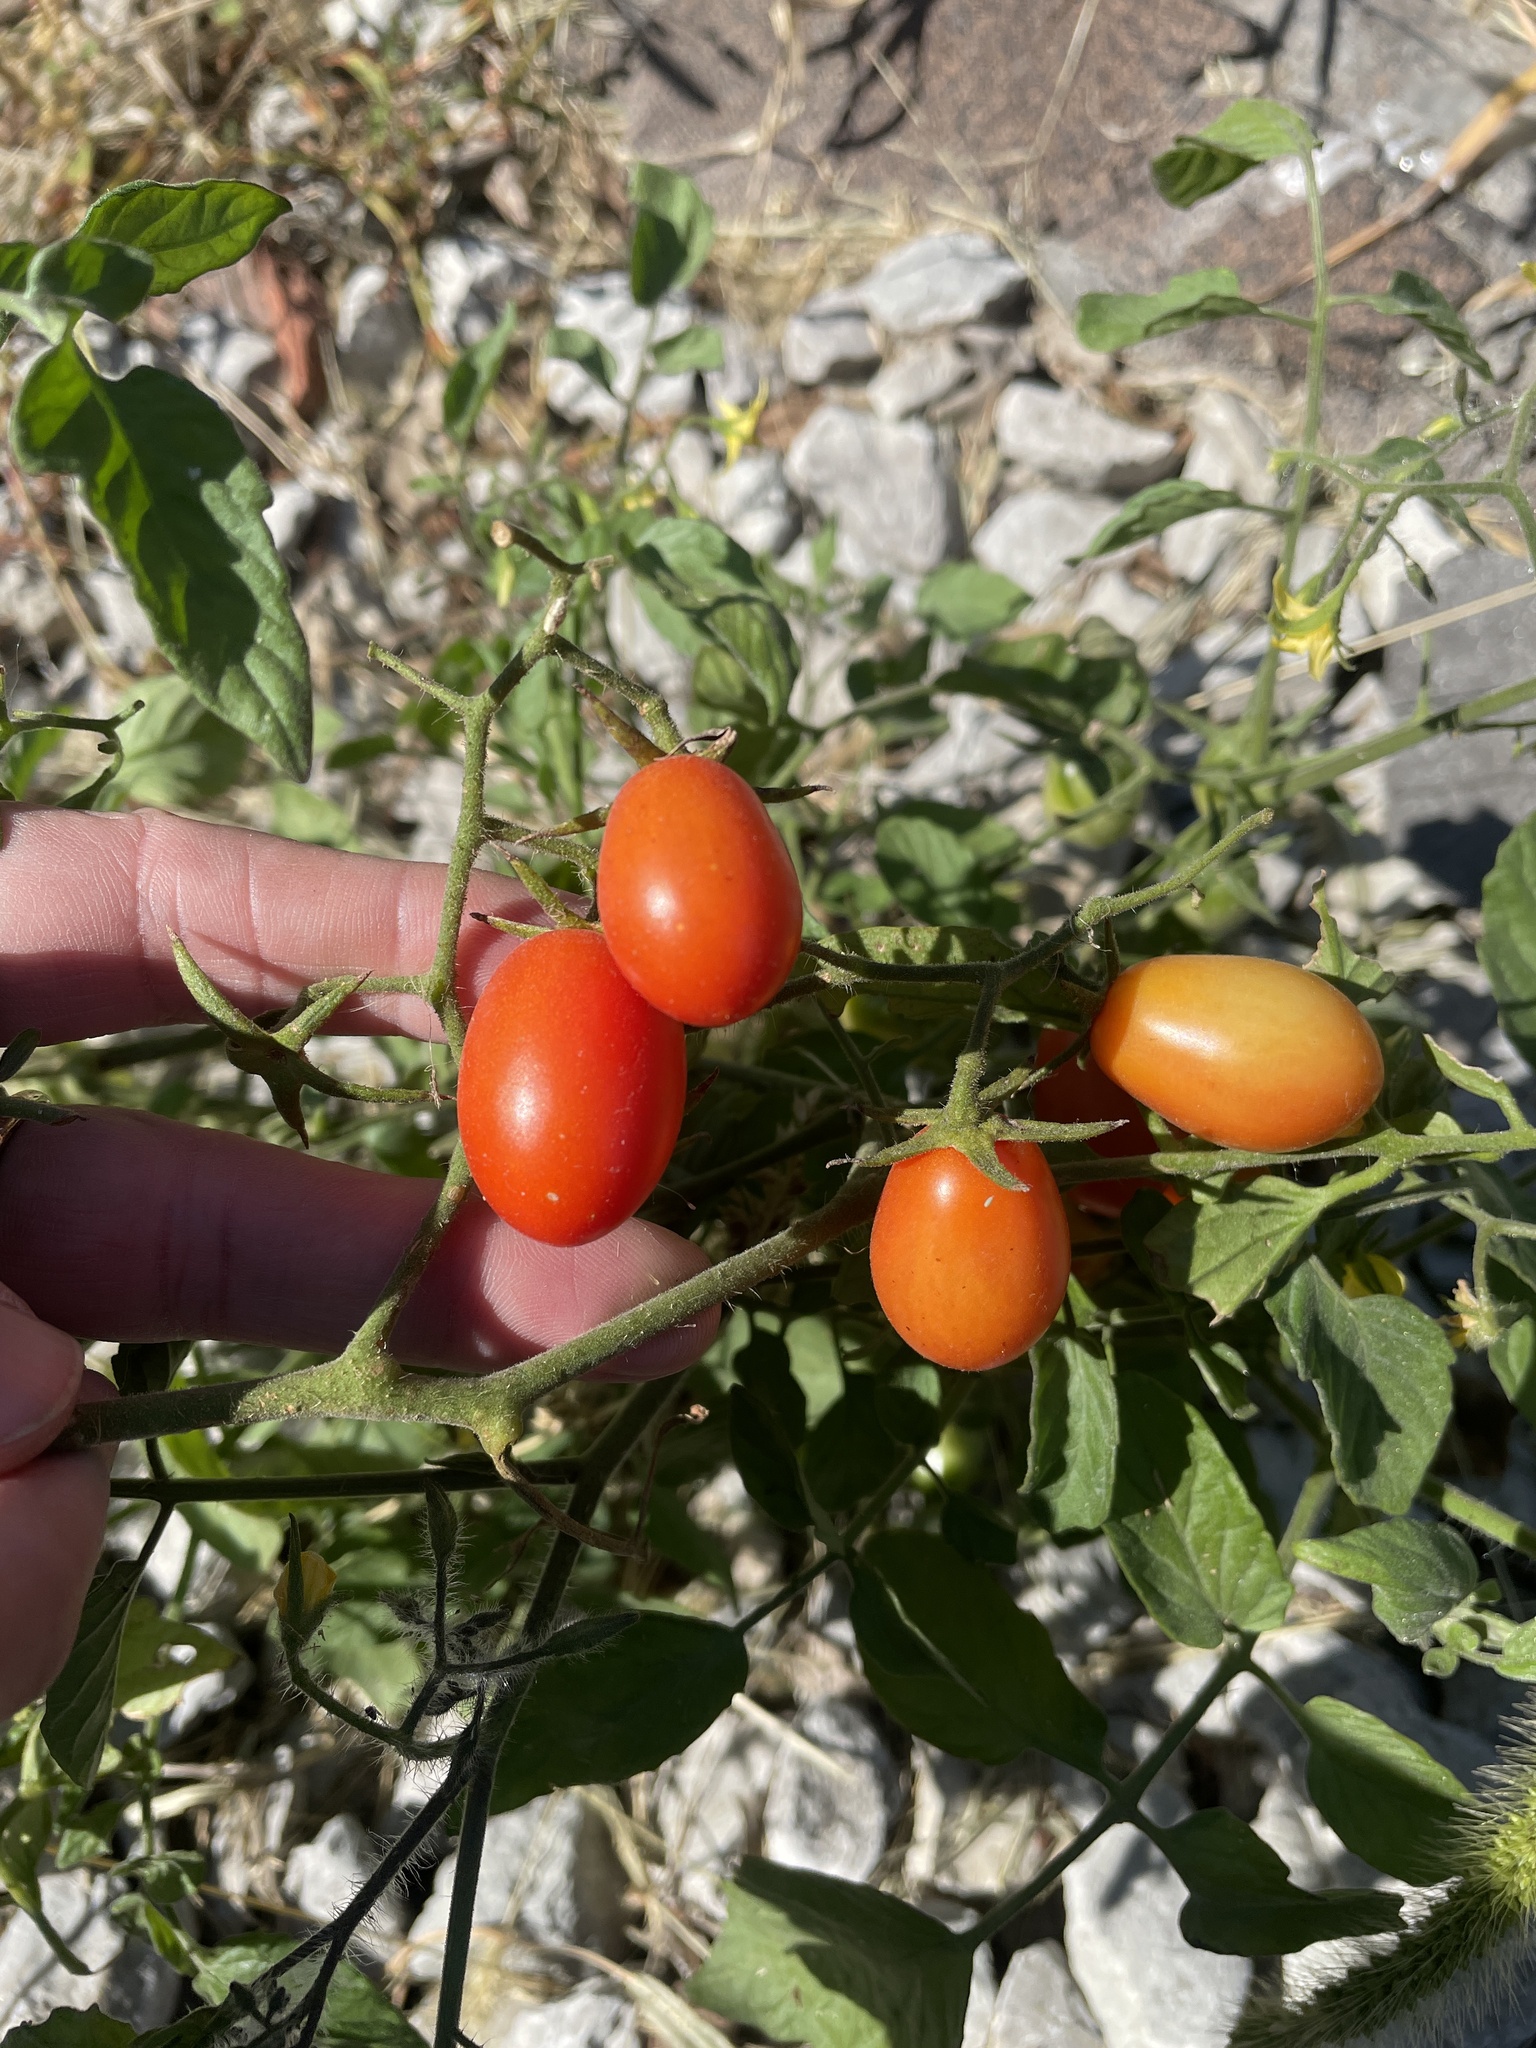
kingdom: Plantae
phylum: Tracheophyta
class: Magnoliopsida
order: Solanales
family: Solanaceae
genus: Solanum
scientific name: Solanum lycopersicum
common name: Garden tomato
